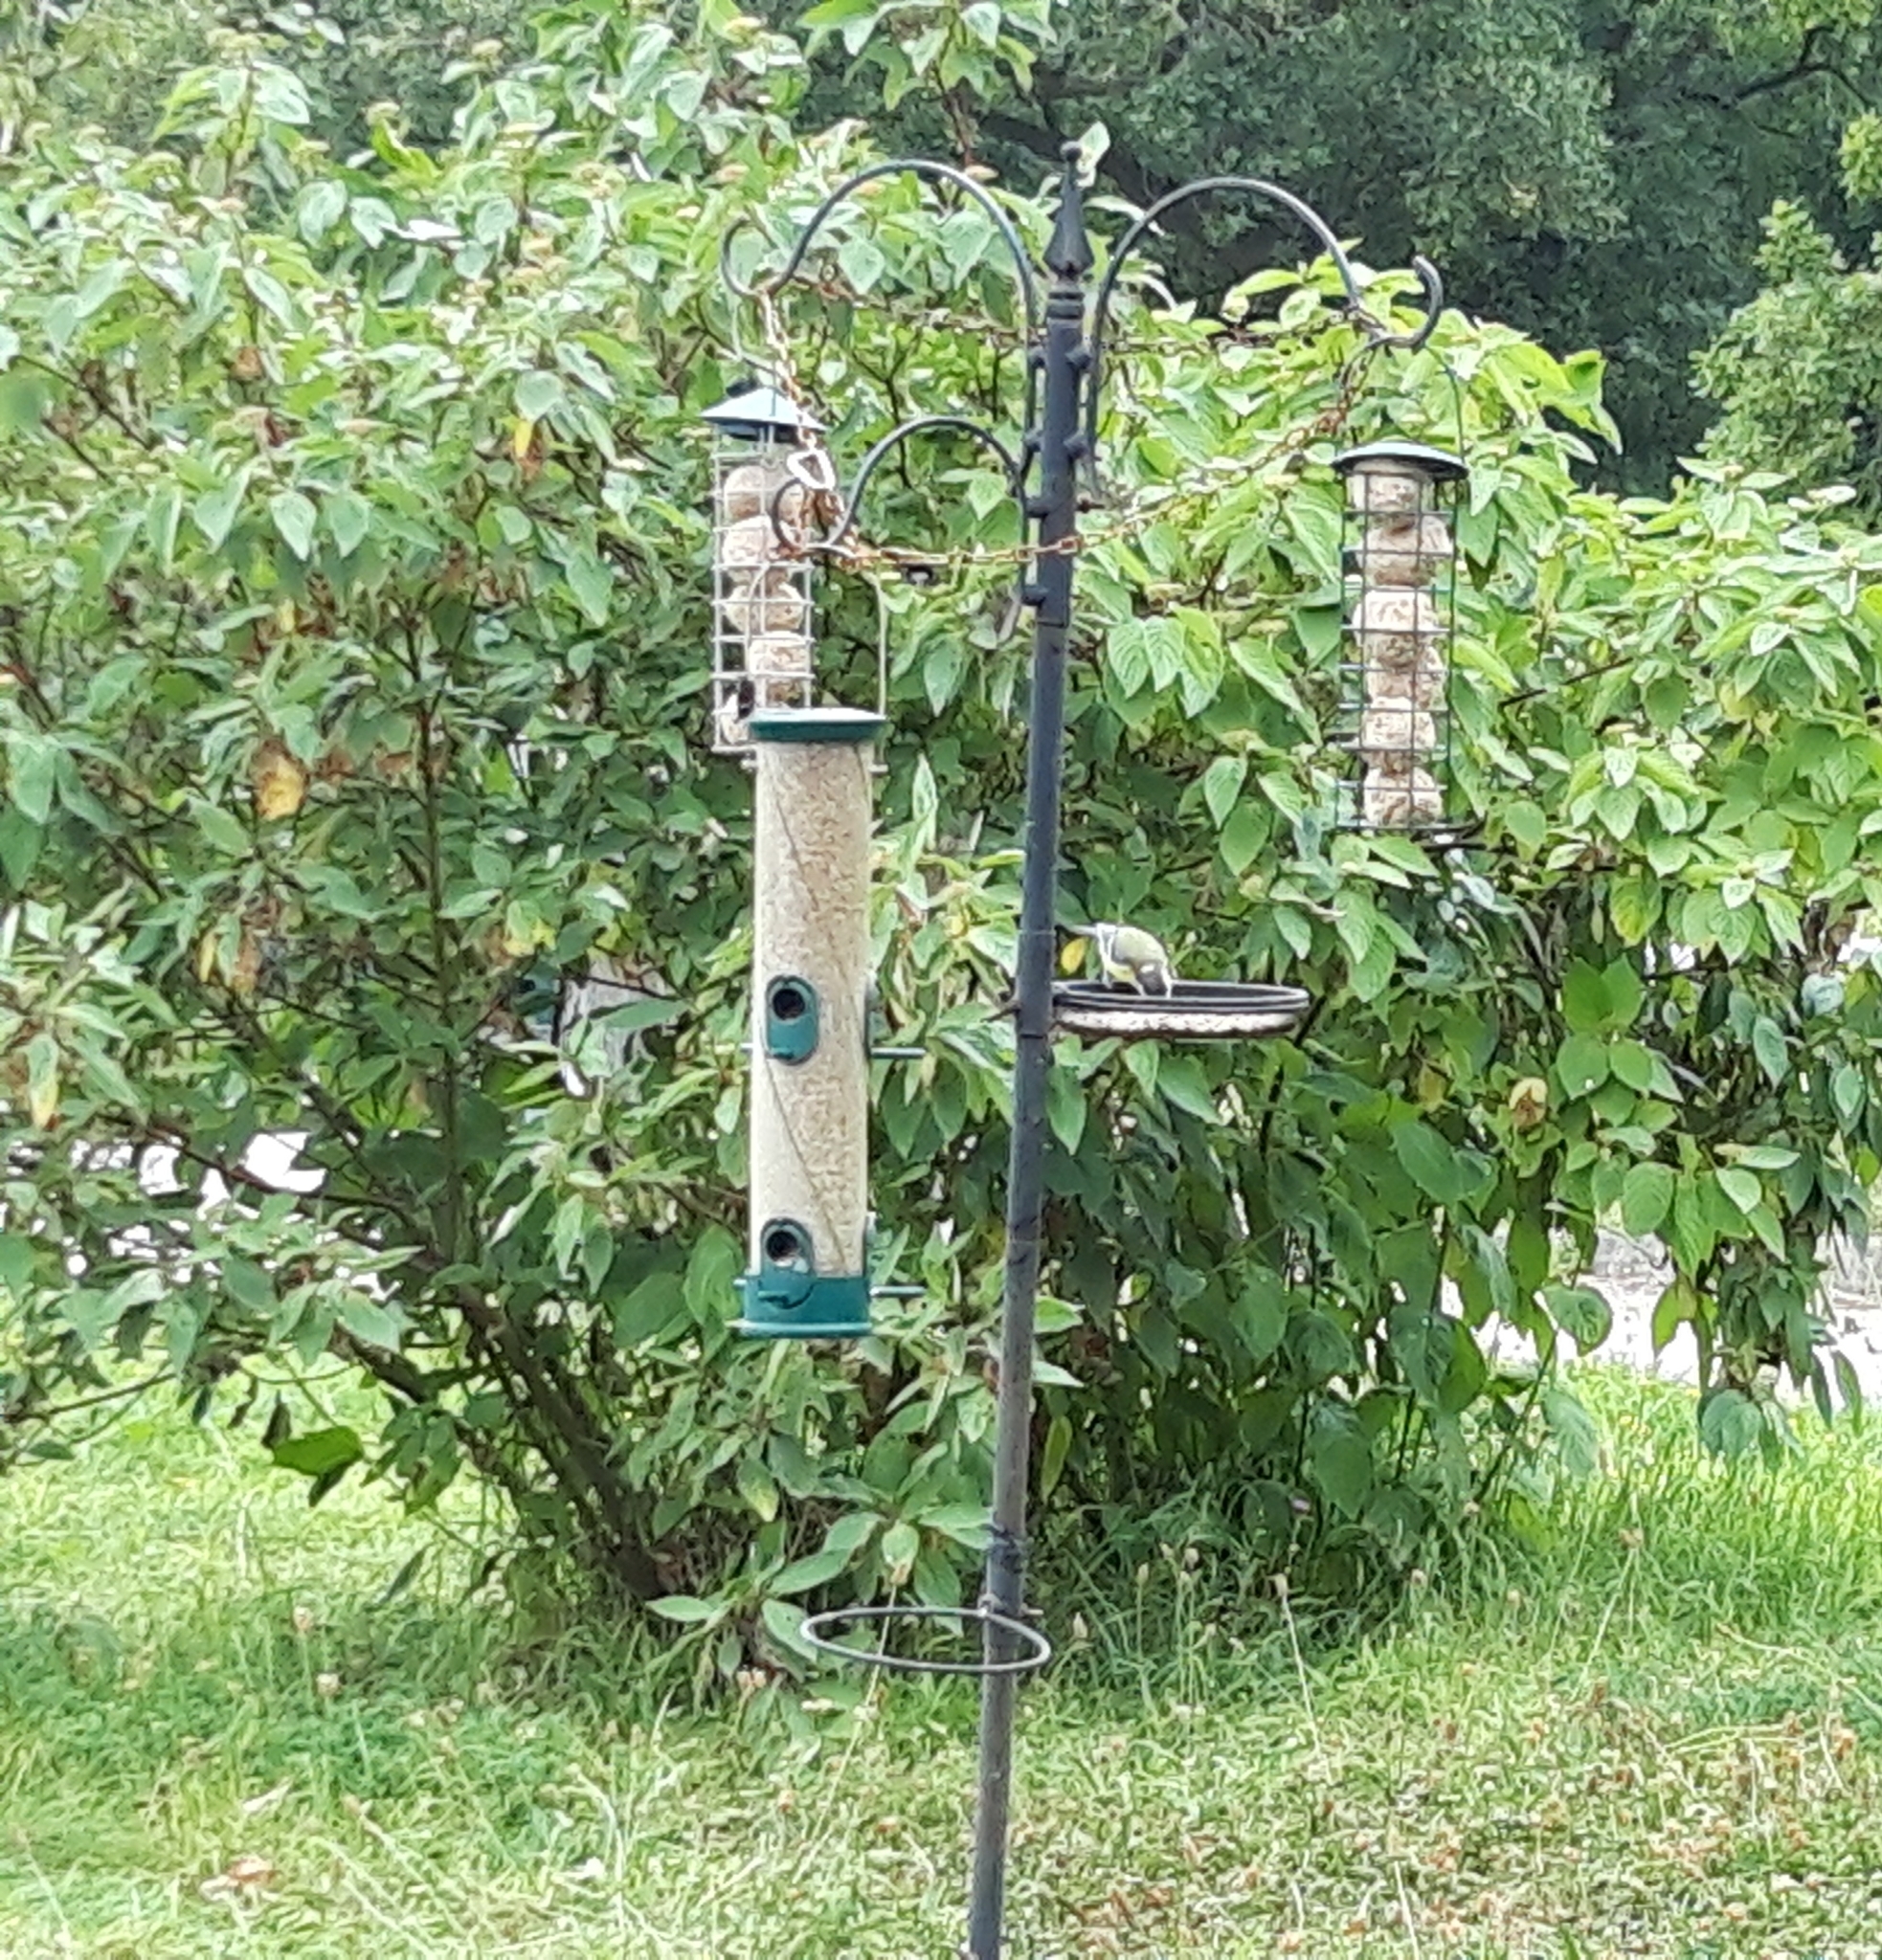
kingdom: Animalia
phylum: Chordata
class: Aves
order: Passeriformes
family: Paridae
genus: Parus
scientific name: Parus major
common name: Great tit
